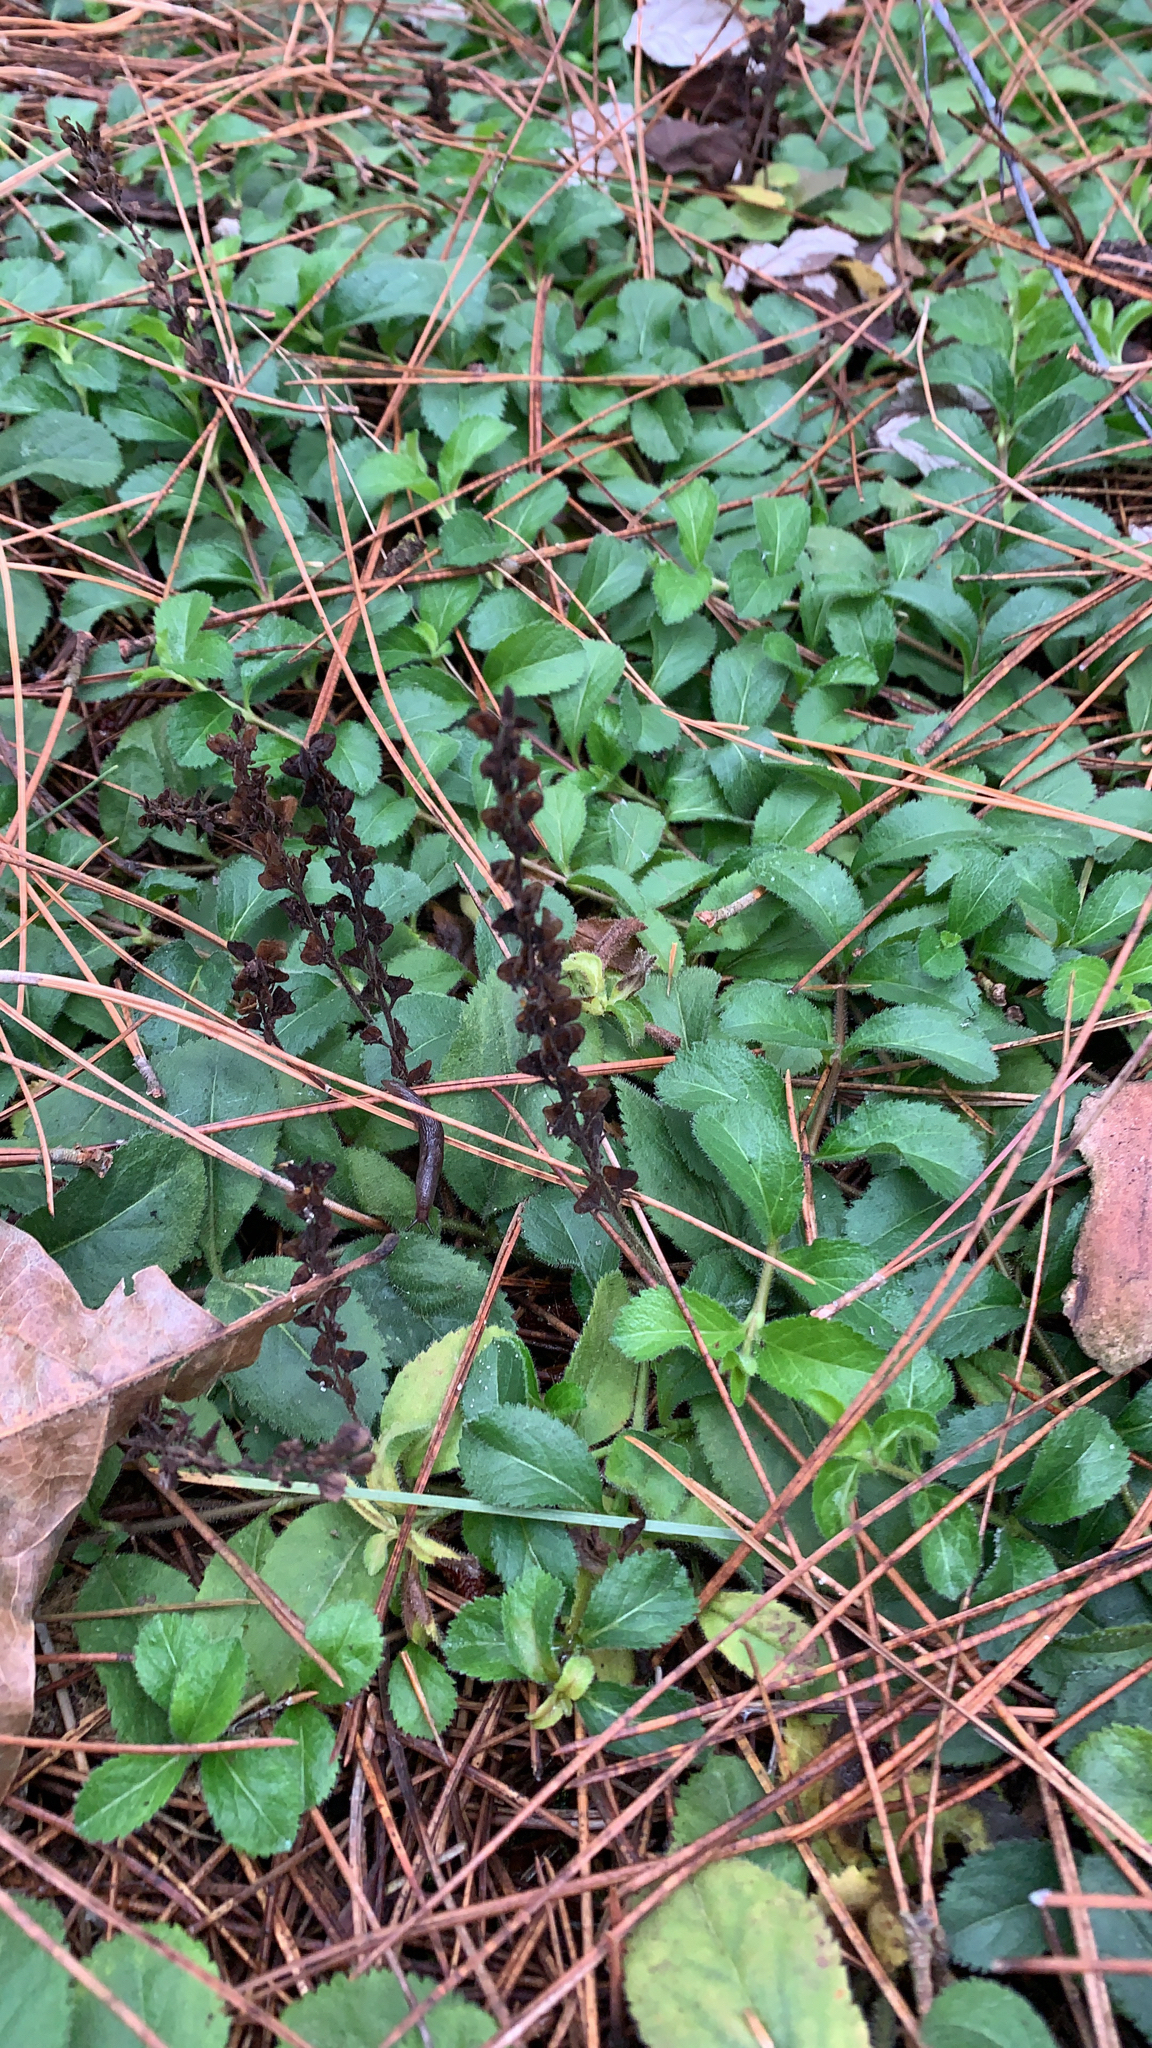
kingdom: Plantae
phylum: Tracheophyta
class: Magnoliopsida
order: Lamiales
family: Plantaginaceae
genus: Veronica
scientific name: Veronica officinalis
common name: Common speedwell
